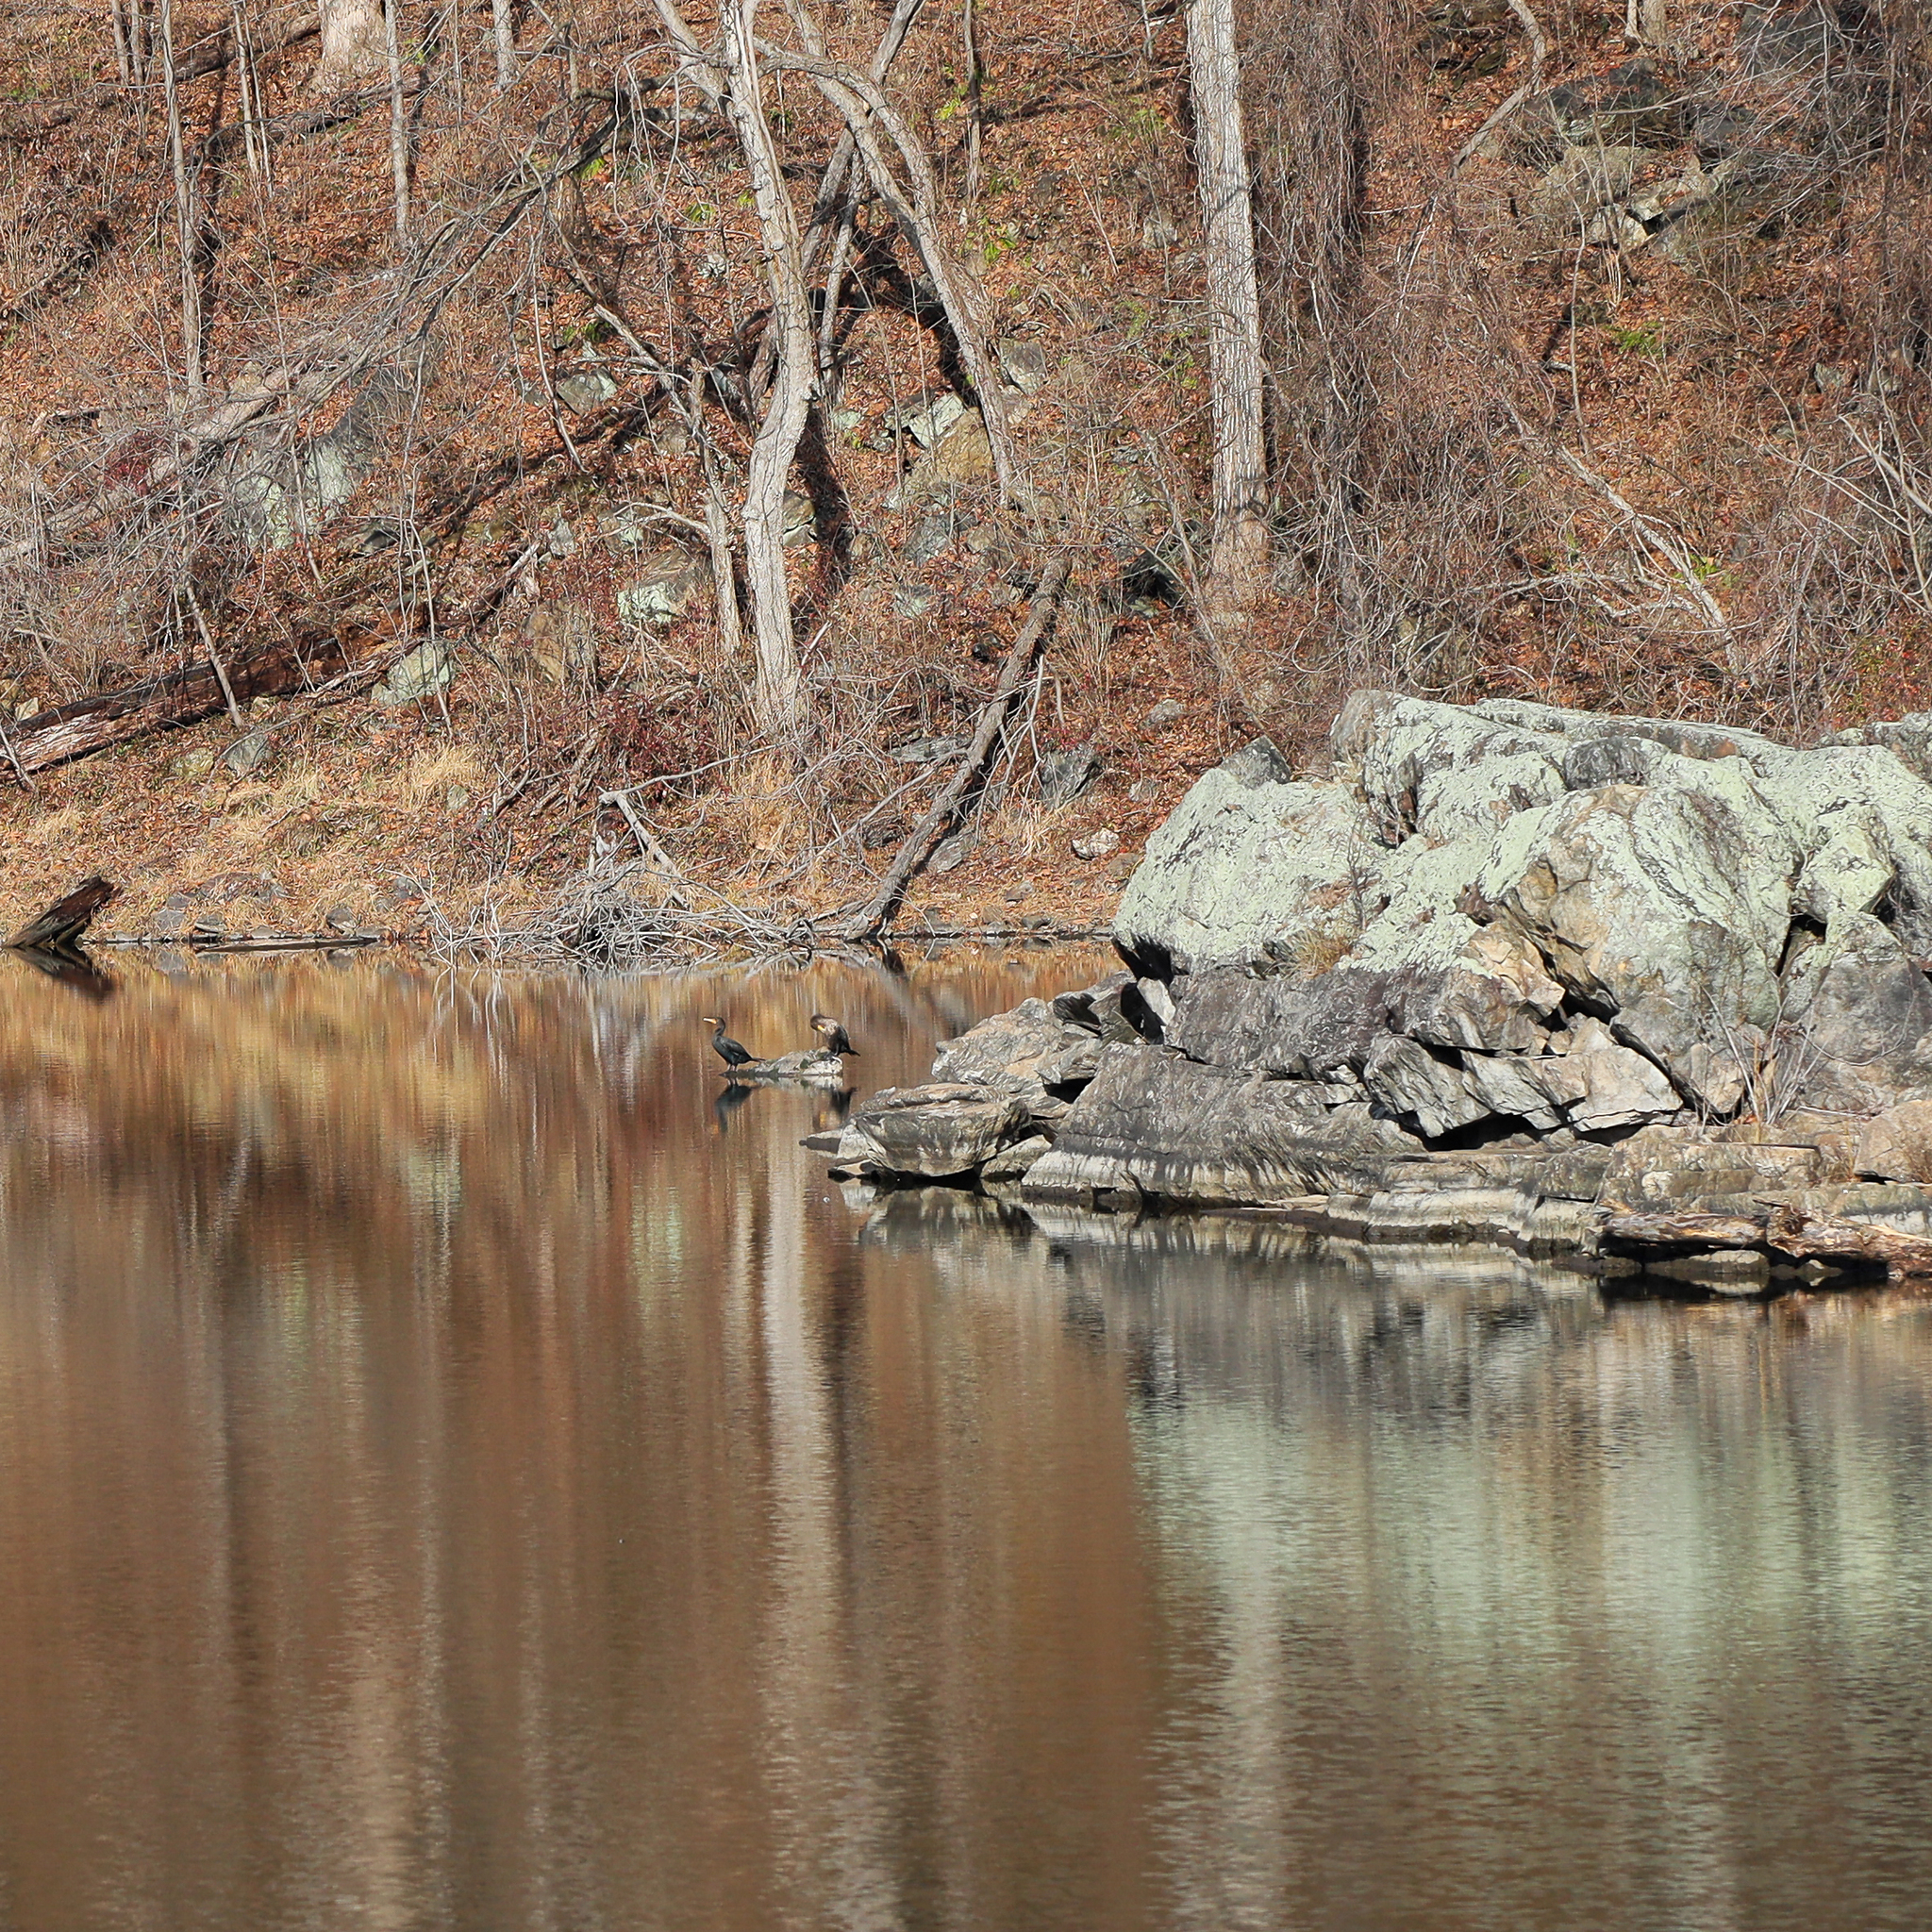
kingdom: Animalia
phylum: Chordata
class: Aves
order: Suliformes
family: Phalacrocoracidae
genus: Phalacrocorax
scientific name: Phalacrocorax auritus
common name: Double-crested cormorant
